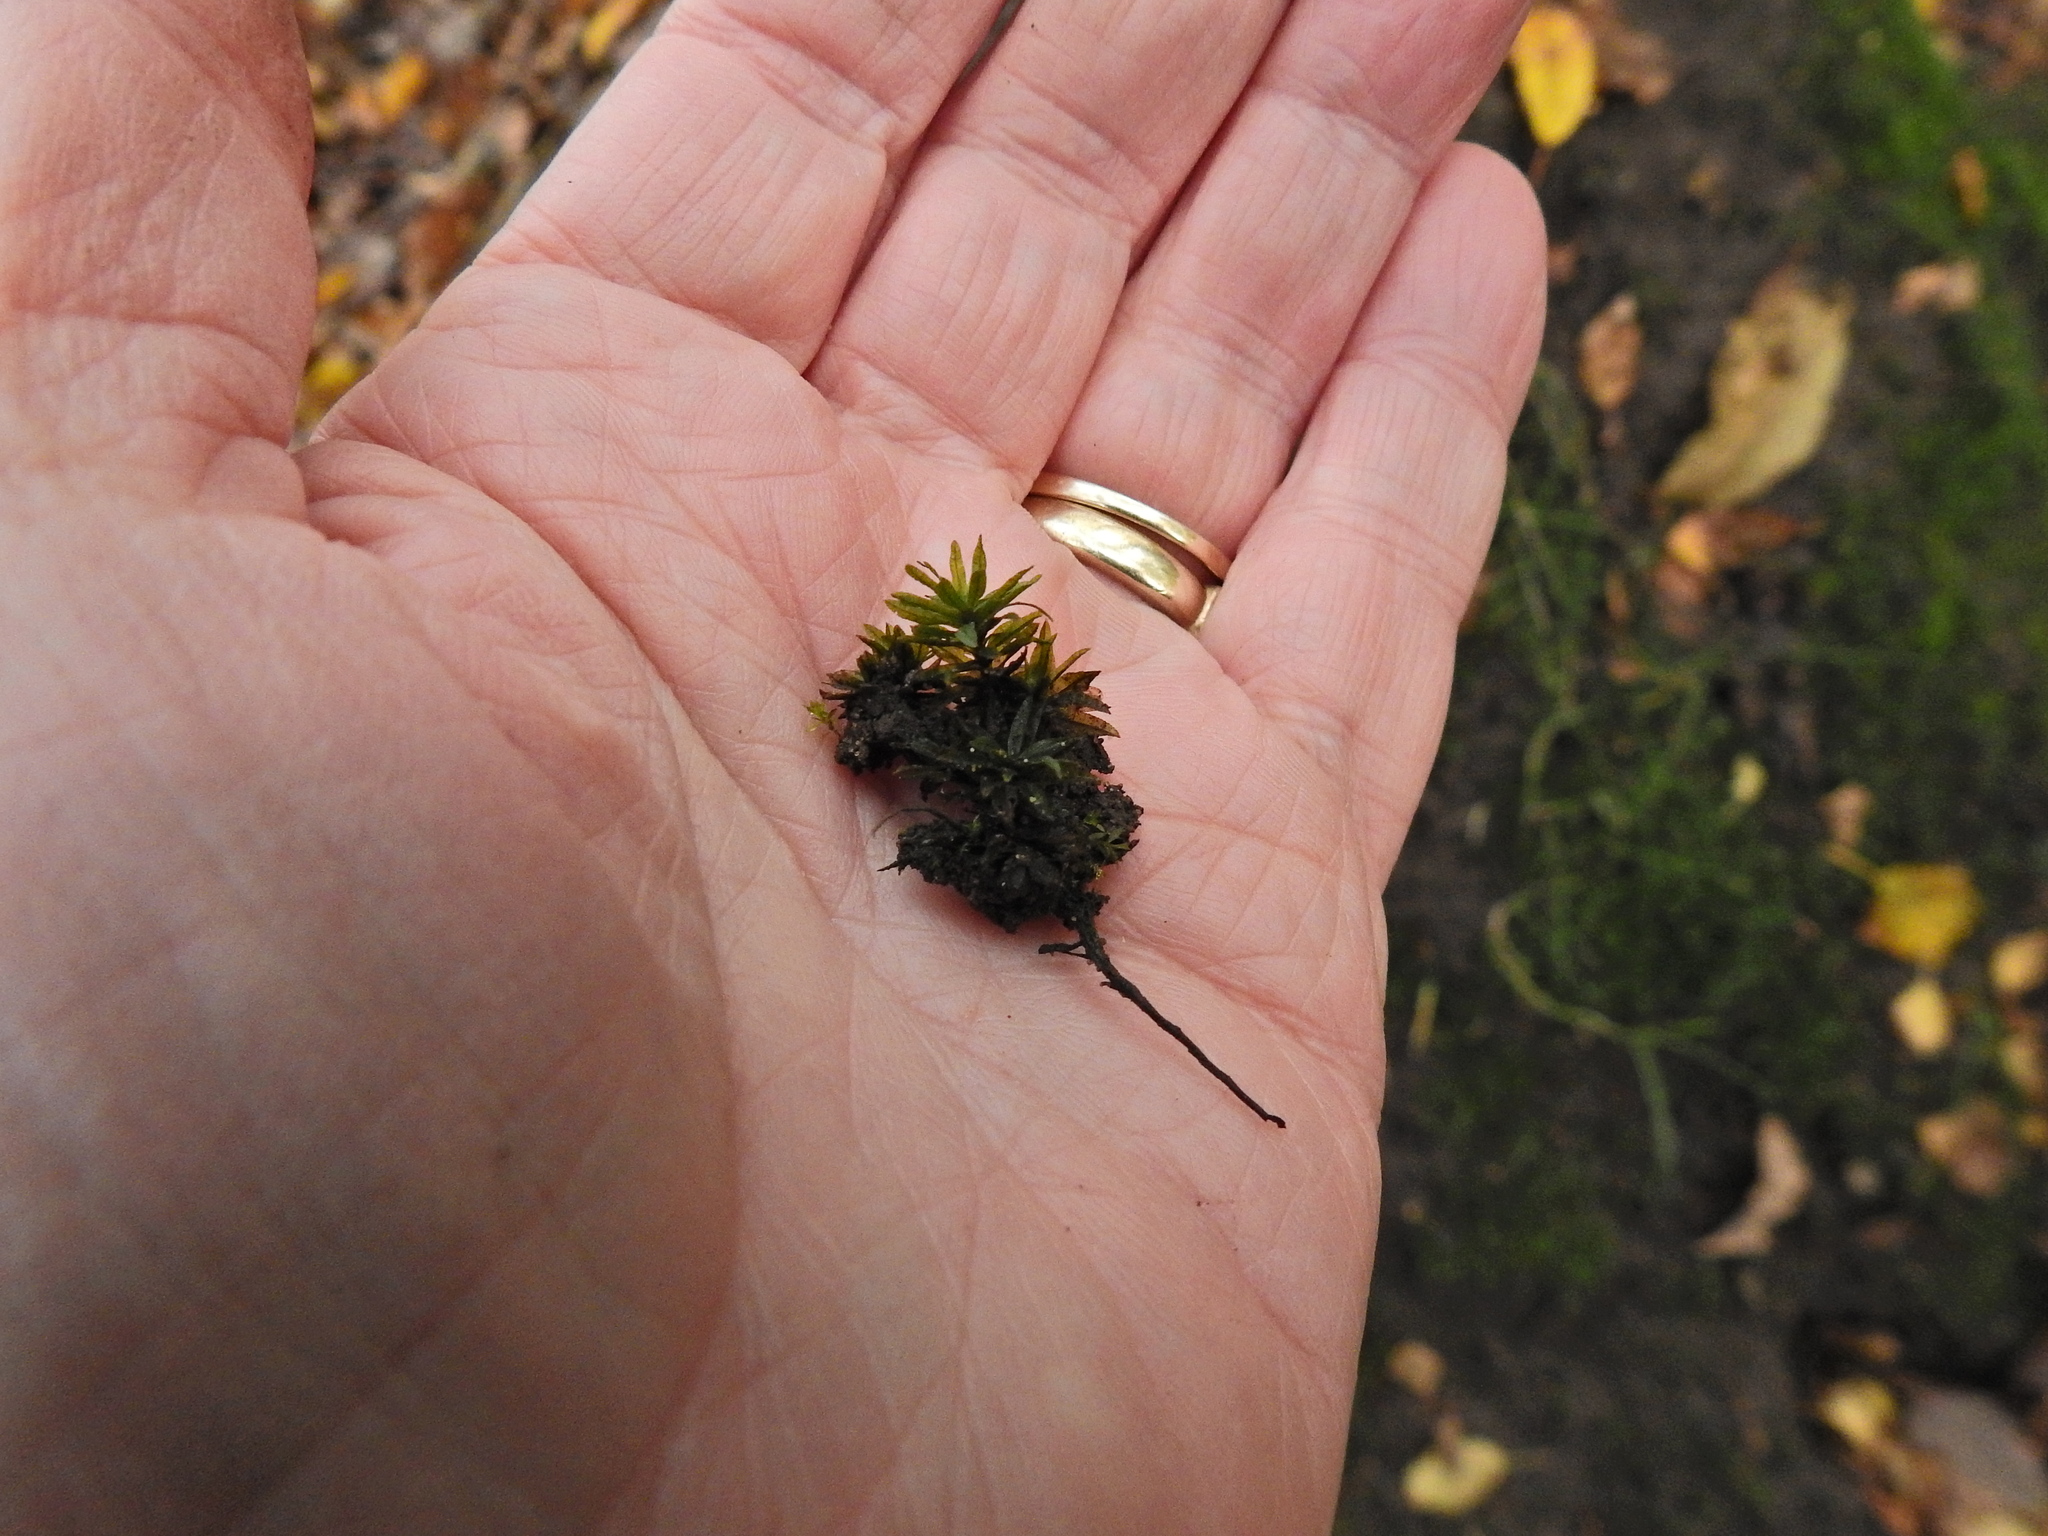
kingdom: Plantae
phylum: Bryophyta
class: Polytrichopsida
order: Polytrichales
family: Polytrichaceae
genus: Atrichum
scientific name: Atrichum undulatum
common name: Common smoothcap
